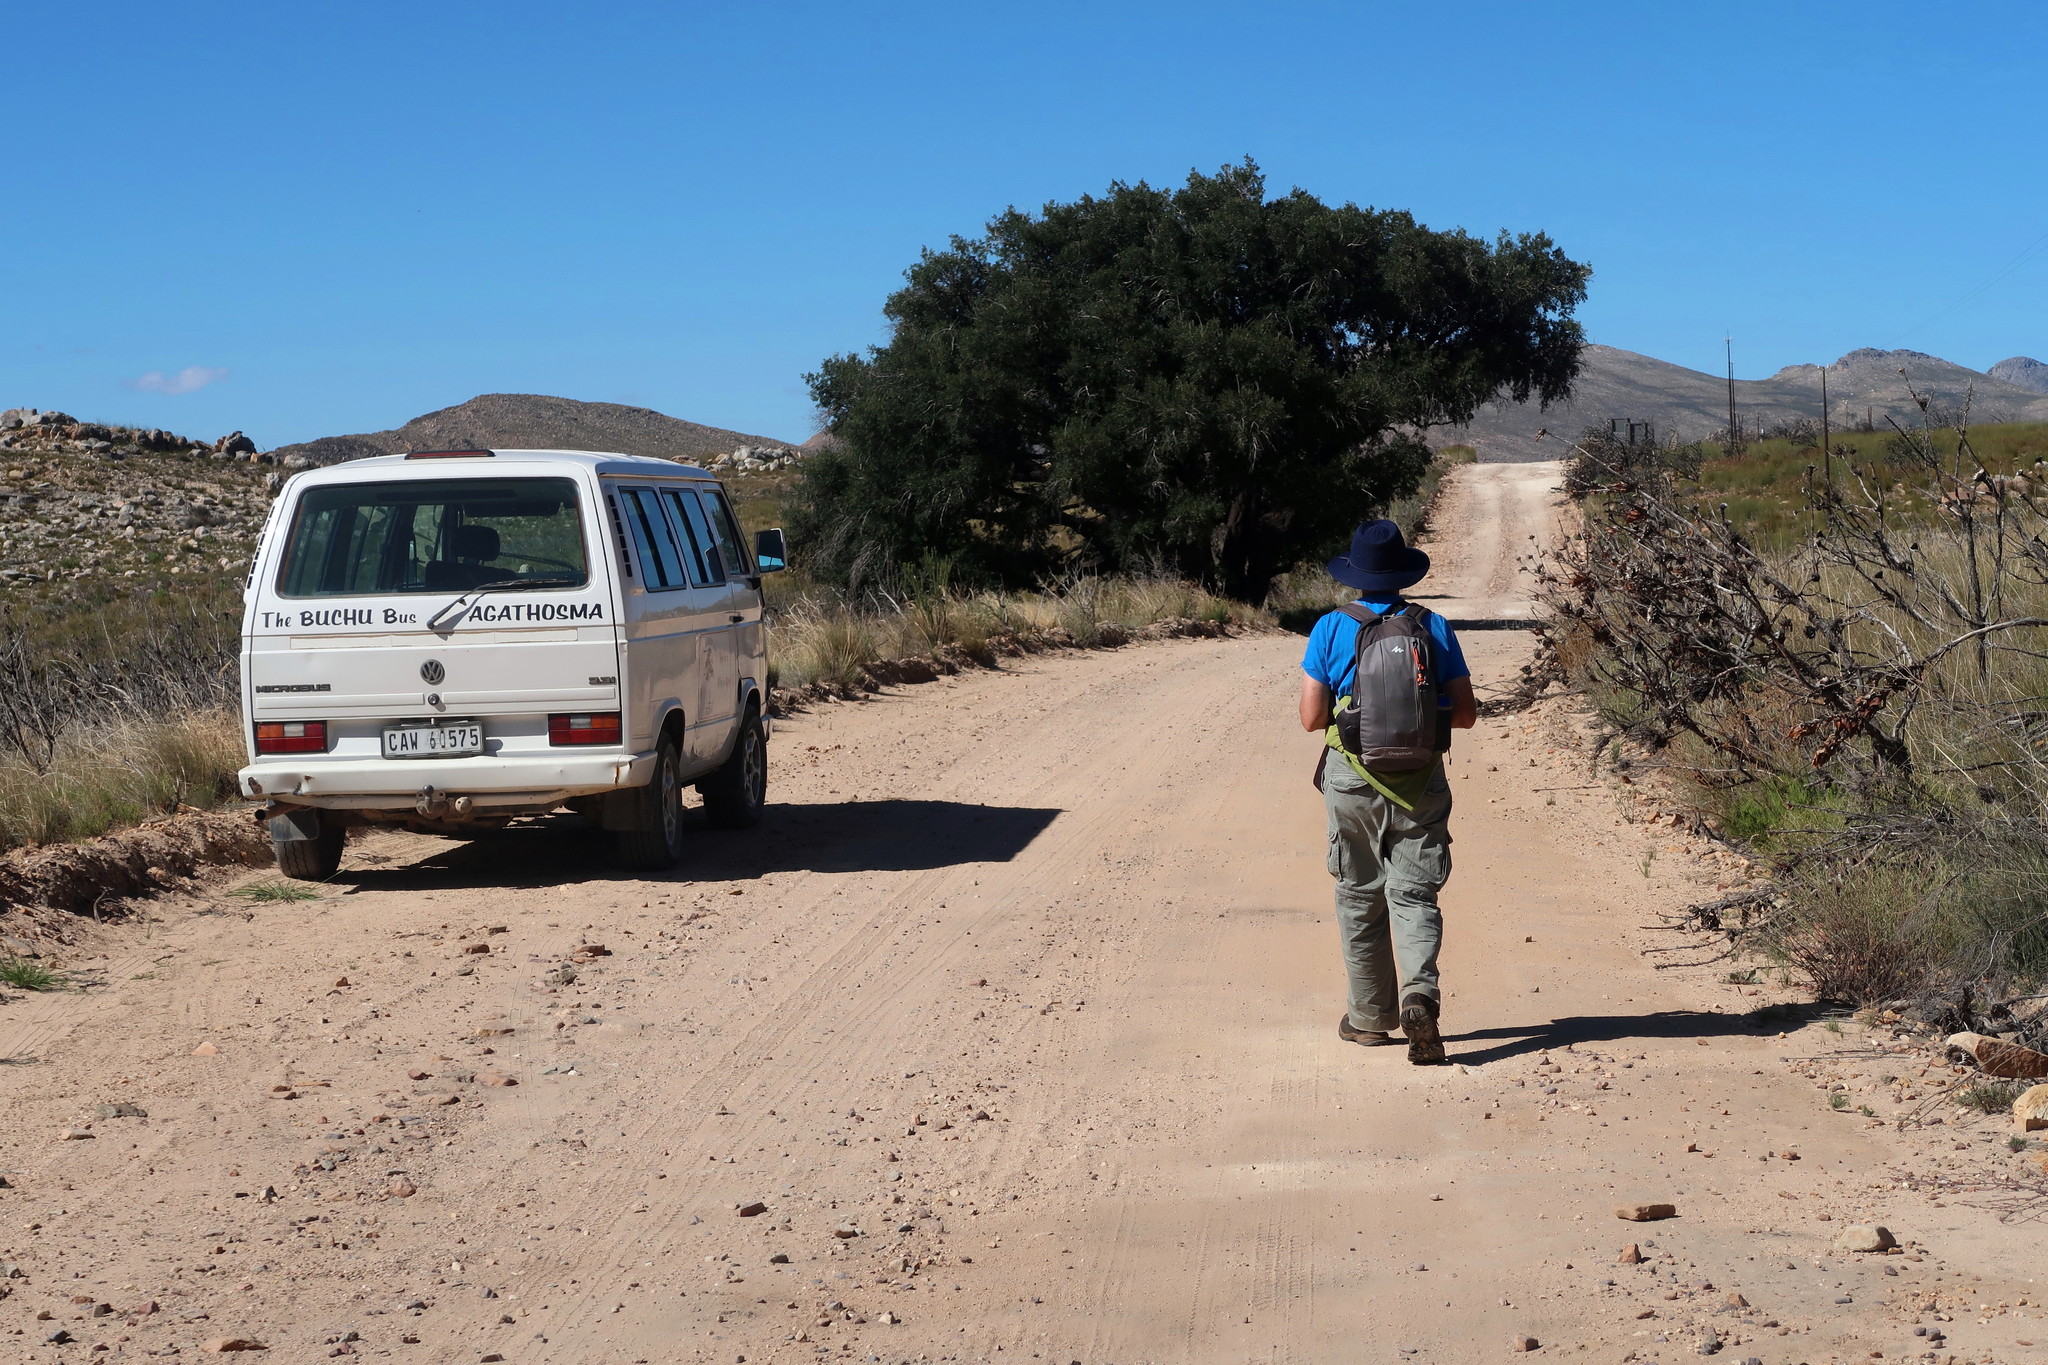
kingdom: Plantae
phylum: Tracheophyta
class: Magnoliopsida
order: Fagales
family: Fagaceae
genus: Quercus
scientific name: Quercus suber
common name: Cork oak
